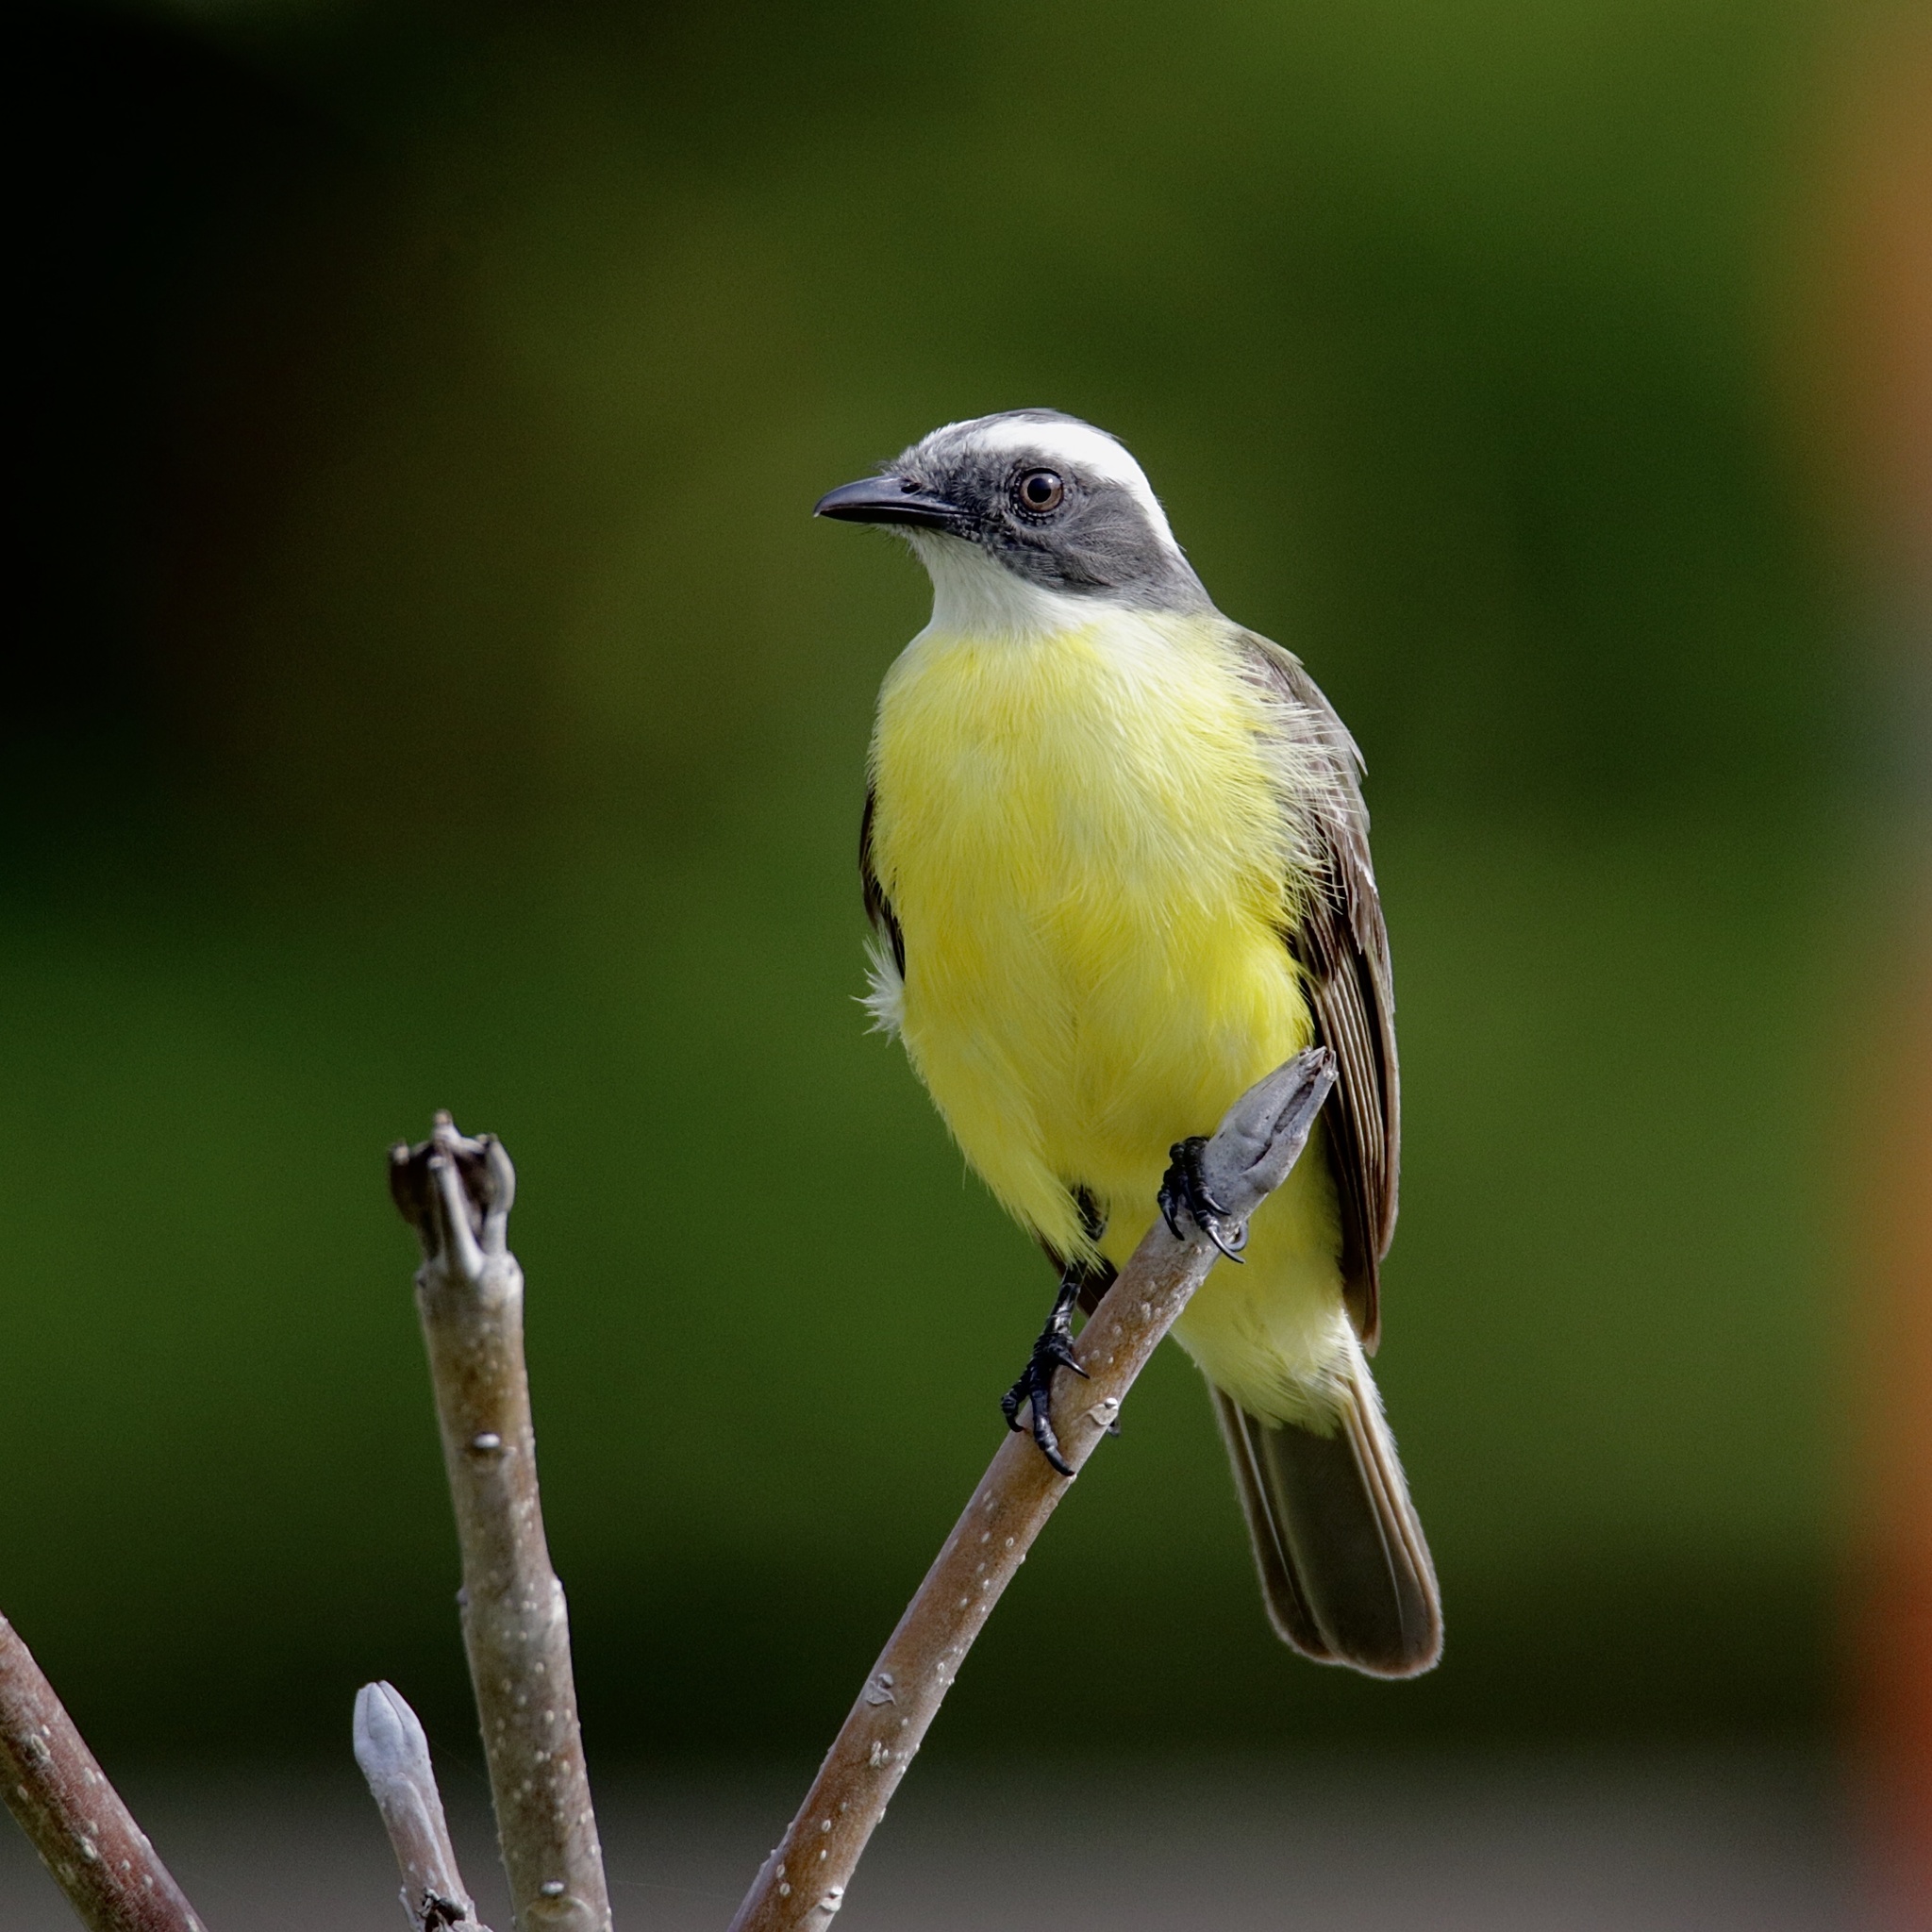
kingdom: Animalia
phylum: Chordata
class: Aves
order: Passeriformes
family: Tyrannidae
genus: Myiozetetes
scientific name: Myiozetetes similis
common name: Social flycatcher
